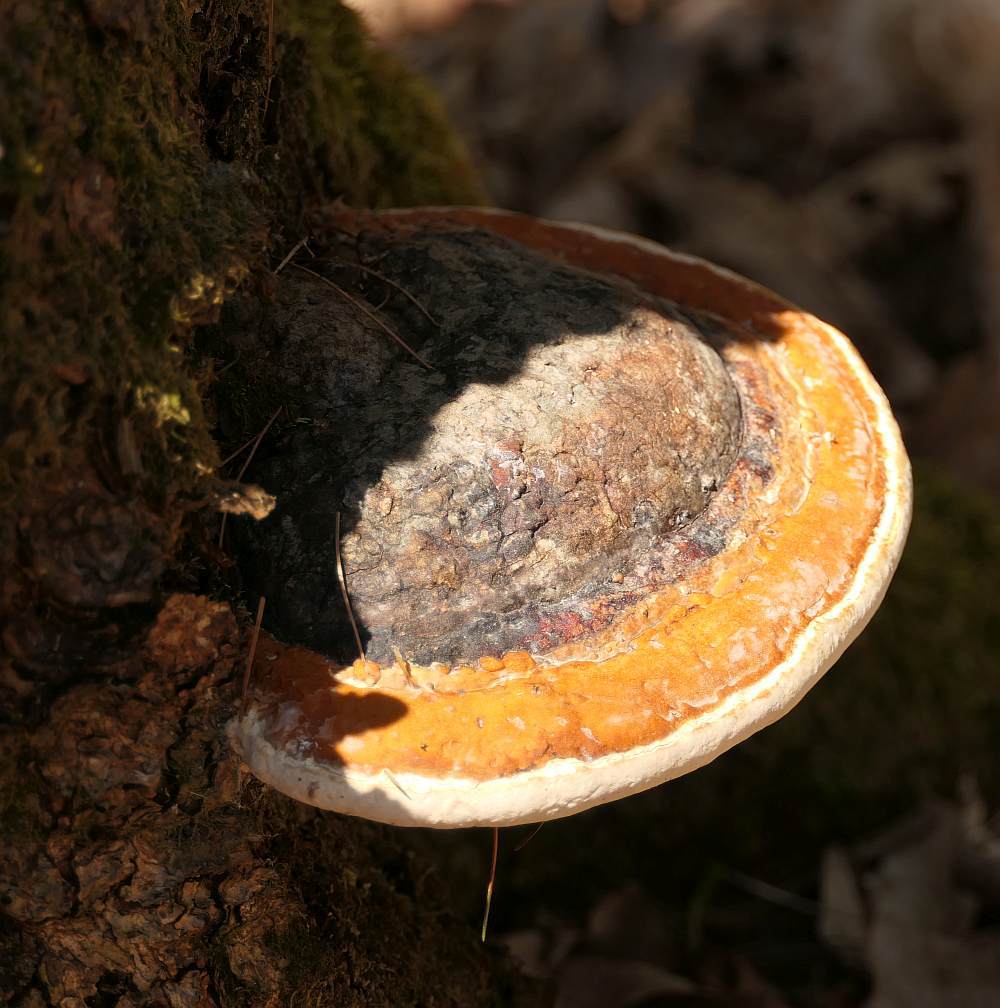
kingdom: Fungi
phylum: Basidiomycota
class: Agaricomycetes
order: Polyporales
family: Fomitopsidaceae
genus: Fomitopsis
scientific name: Fomitopsis mounceae
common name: Northern red belt
